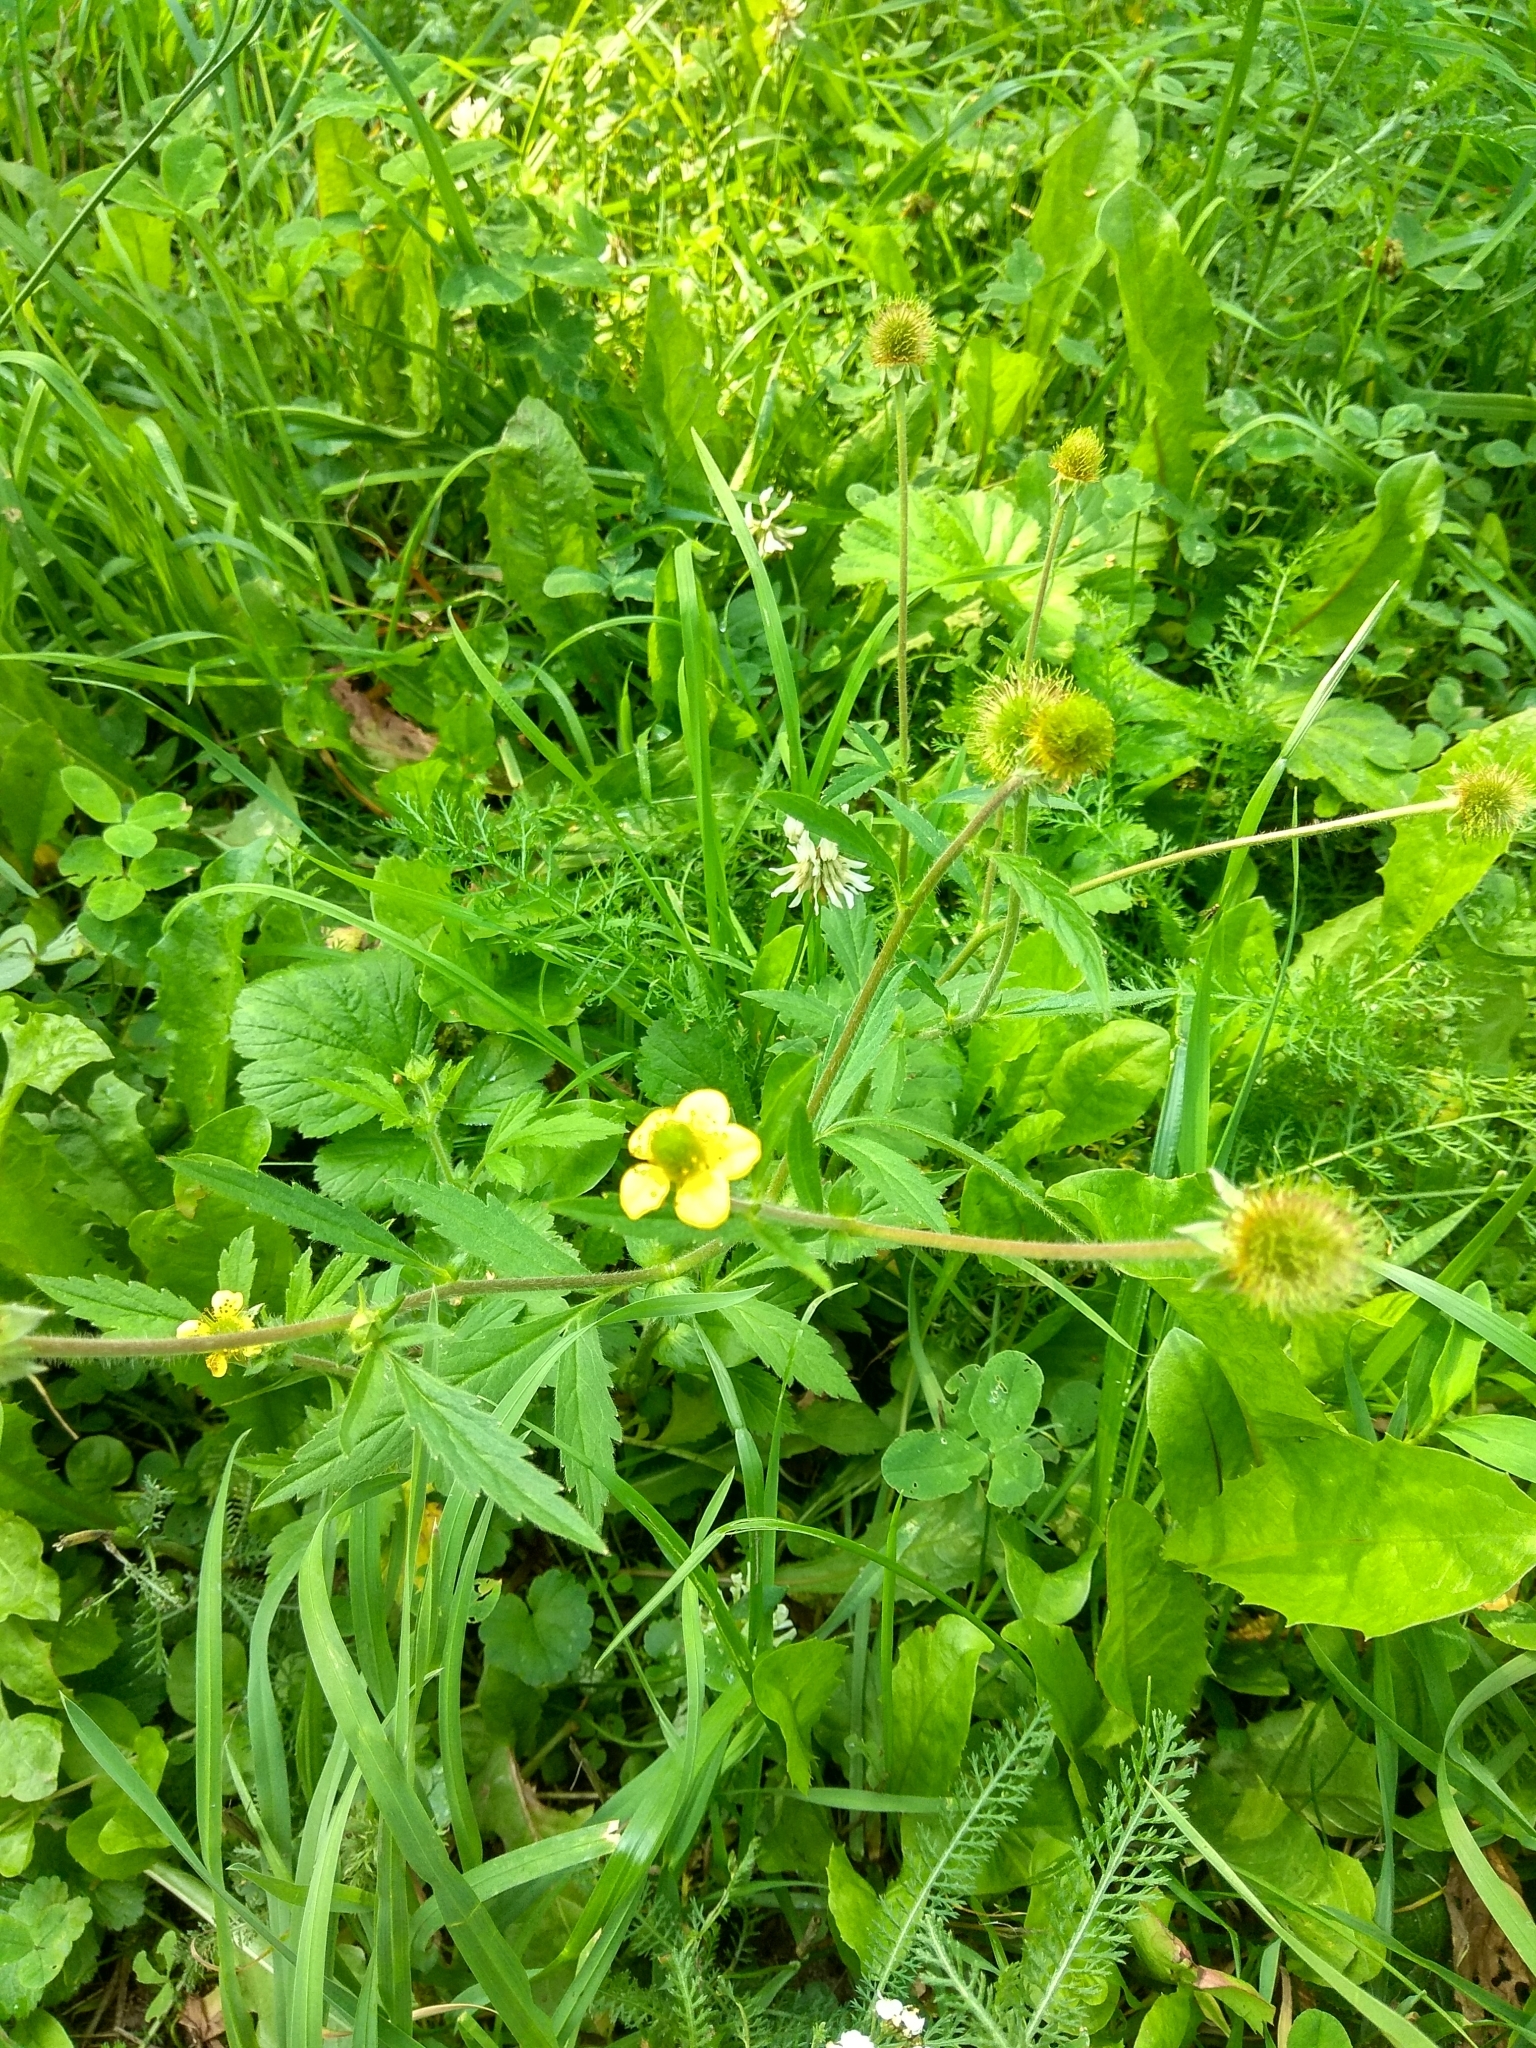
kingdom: Plantae
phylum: Tracheophyta
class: Magnoliopsida
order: Rosales
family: Rosaceae
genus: Geum
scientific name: Geum aleppicum
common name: Yellow avens
